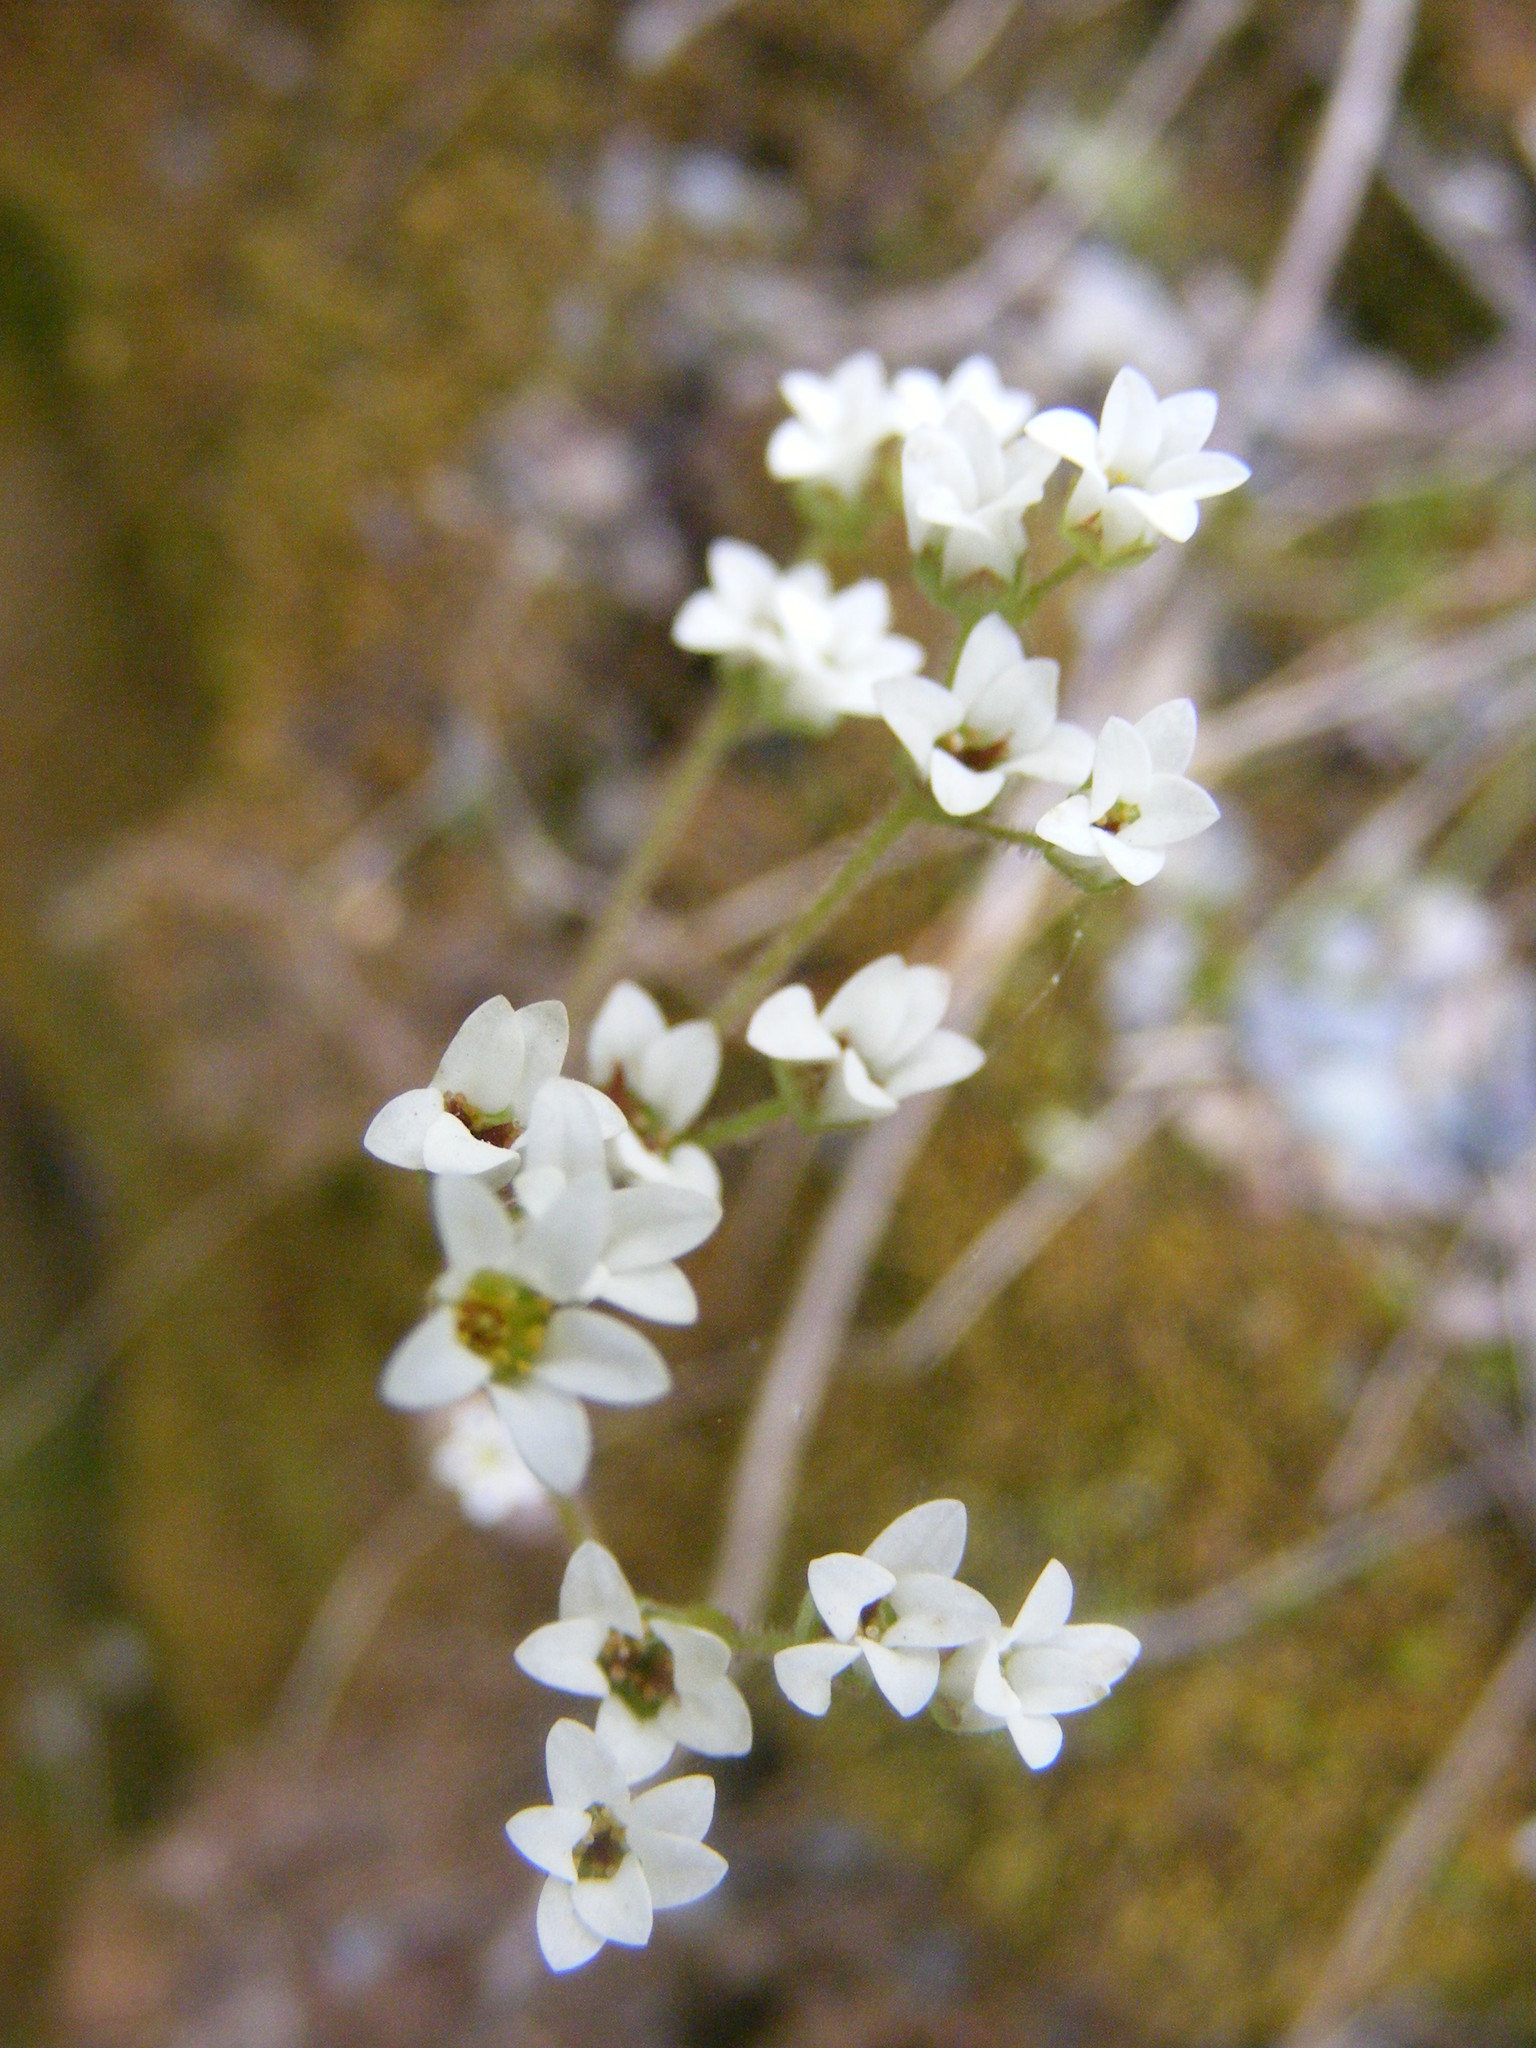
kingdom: Plantae
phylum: Tracheophyta
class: Magnoliopsida
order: Saxifragales
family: Saxifragaceae
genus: Micranthes
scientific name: Micranthes virginiensis
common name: Early saxifrage
